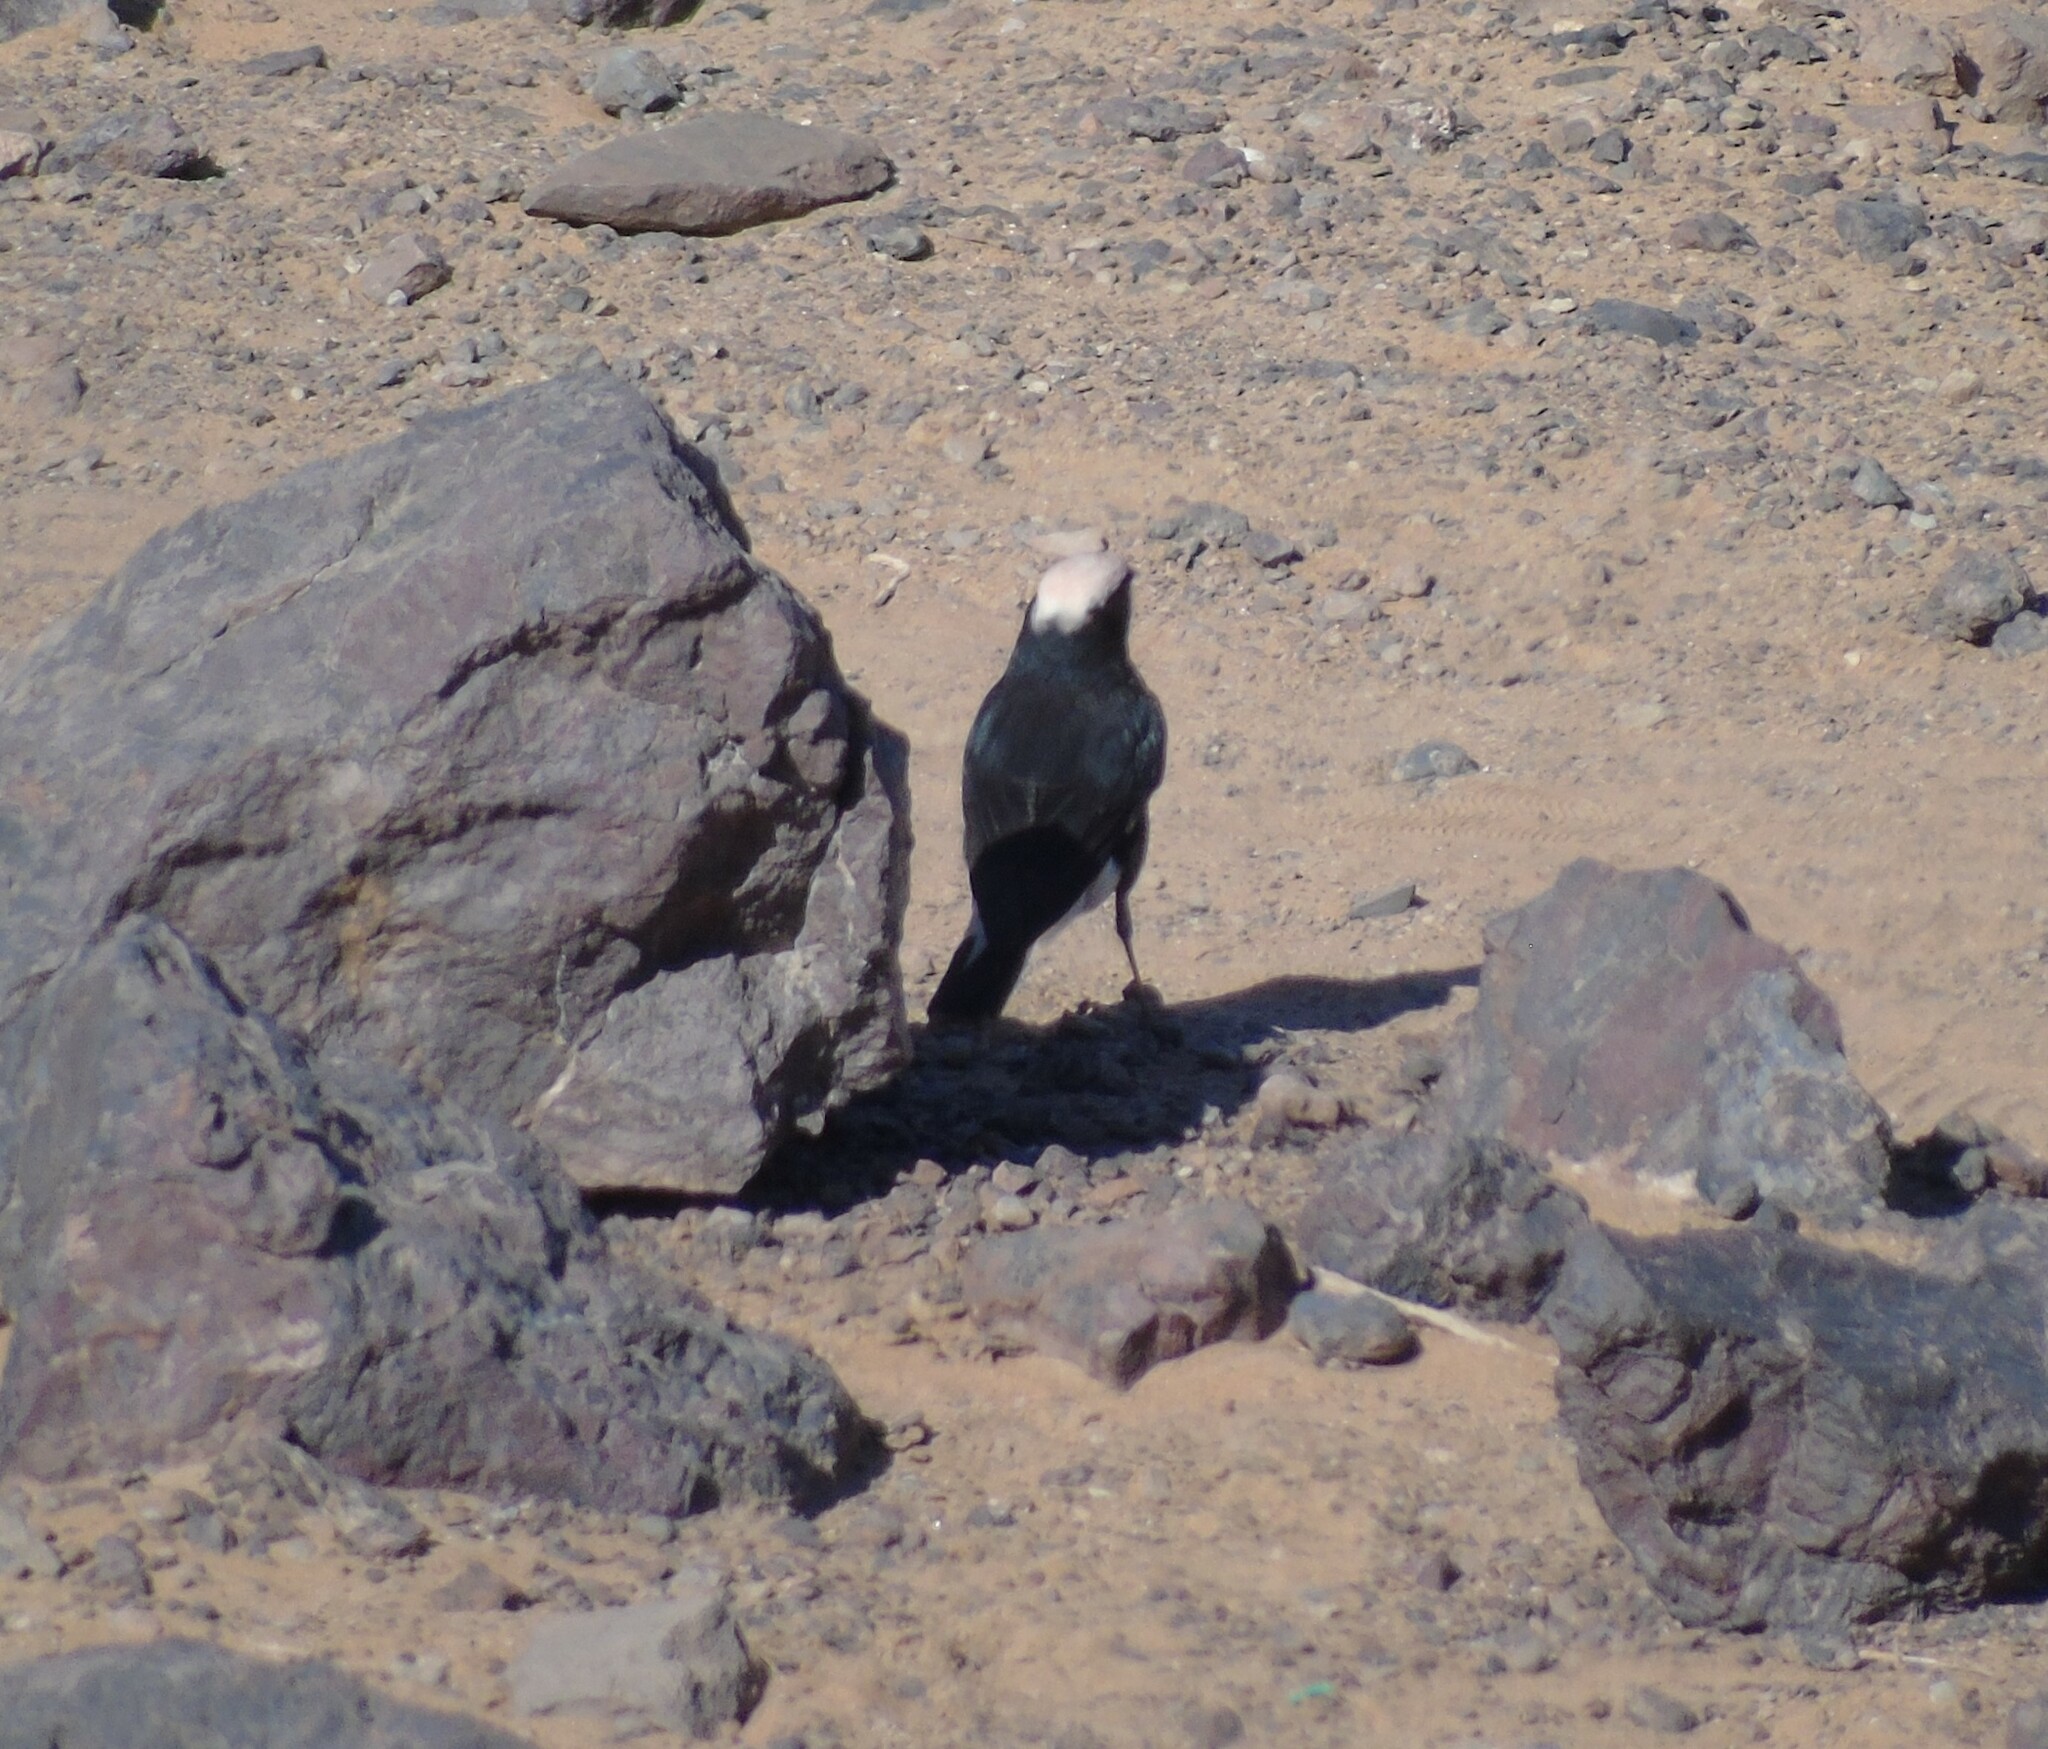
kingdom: Animalia
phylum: Chordata
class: Aves
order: Passeriformes
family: Muscicapidae
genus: Oenanthe
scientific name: Oenanthe leucopyga
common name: White-crowned wheatear
